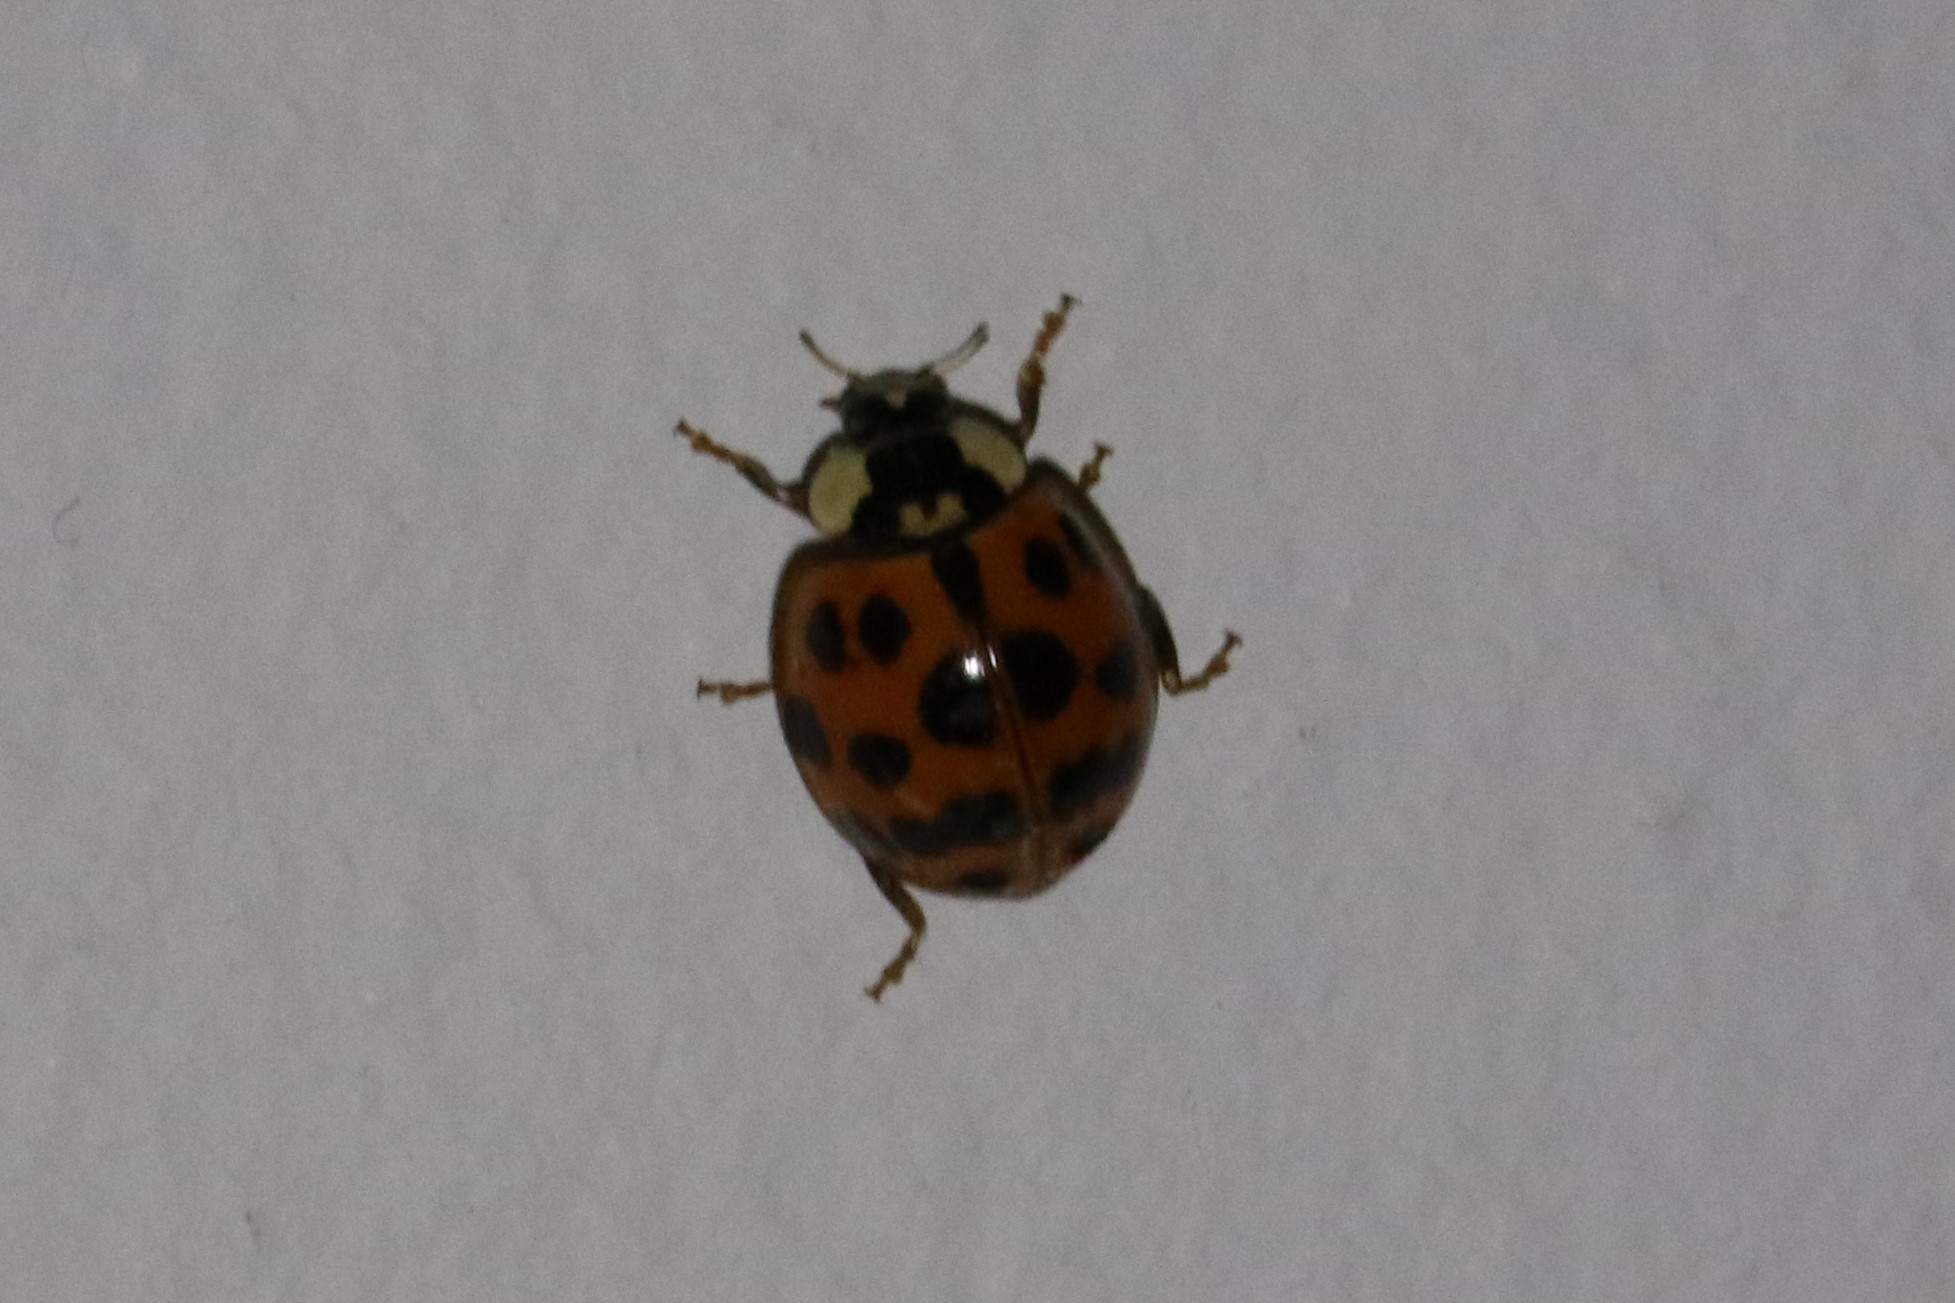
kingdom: Animalia
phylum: Arthropoda
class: Insecta
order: Coleoptera
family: Coccinellidae
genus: Harmonia
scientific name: Harmonia axyridis
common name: Harlequin ladybird
